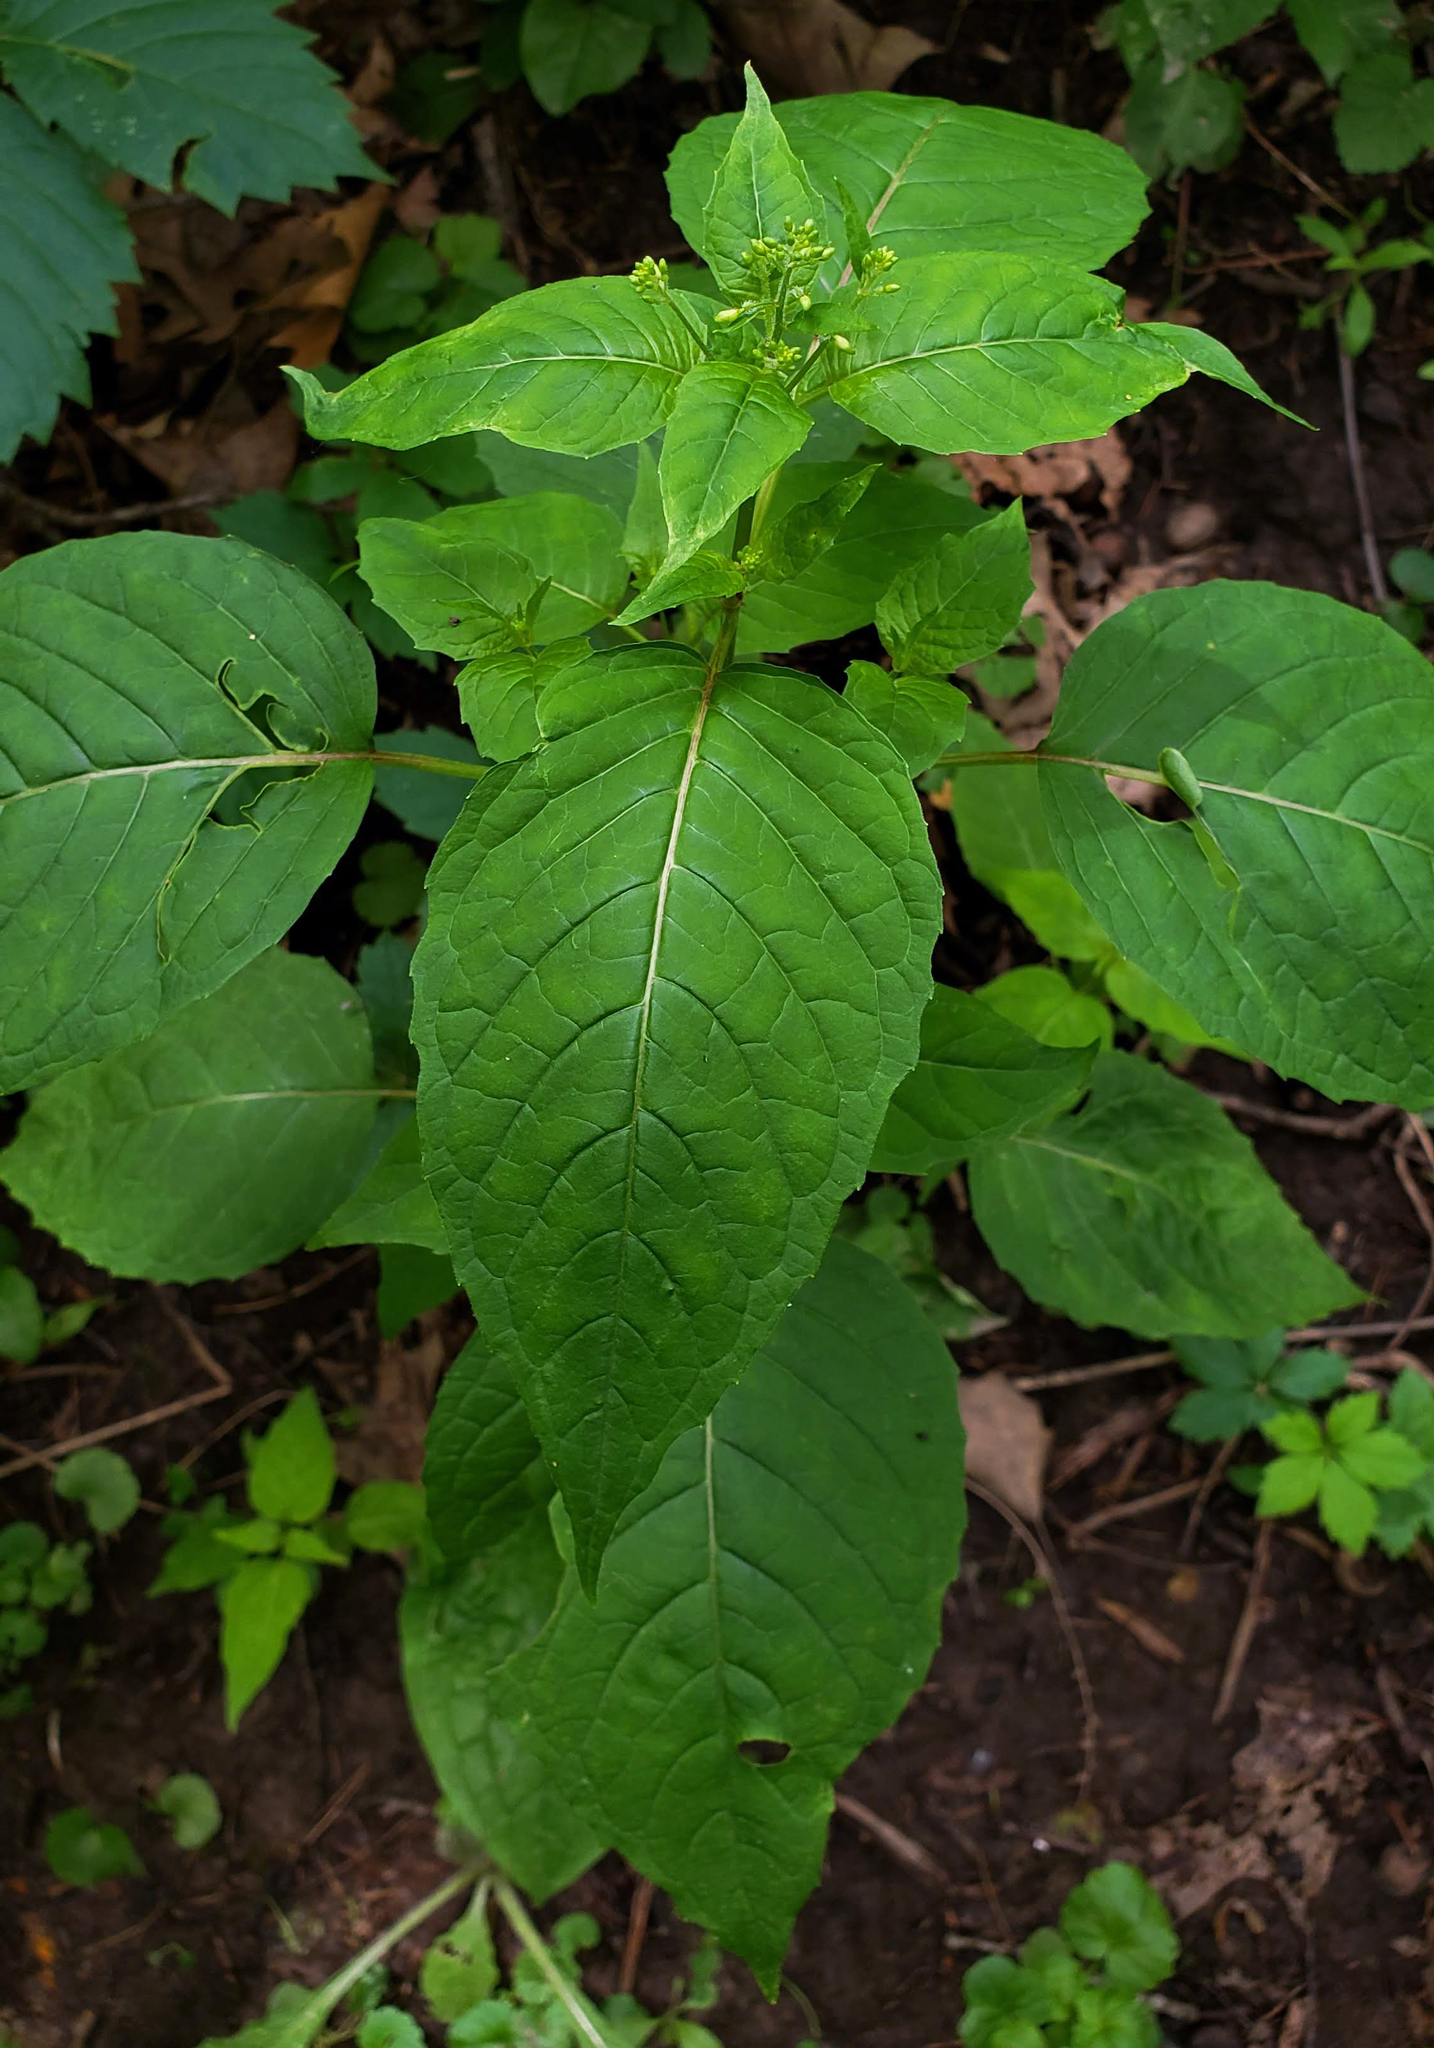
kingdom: Plantae
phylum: Tracheophyta
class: Magnoliopsida
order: Myrtales
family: Onagraceae
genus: Circaea
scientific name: Circaea canadensis
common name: Broad-leaved enchanter's nightshade
